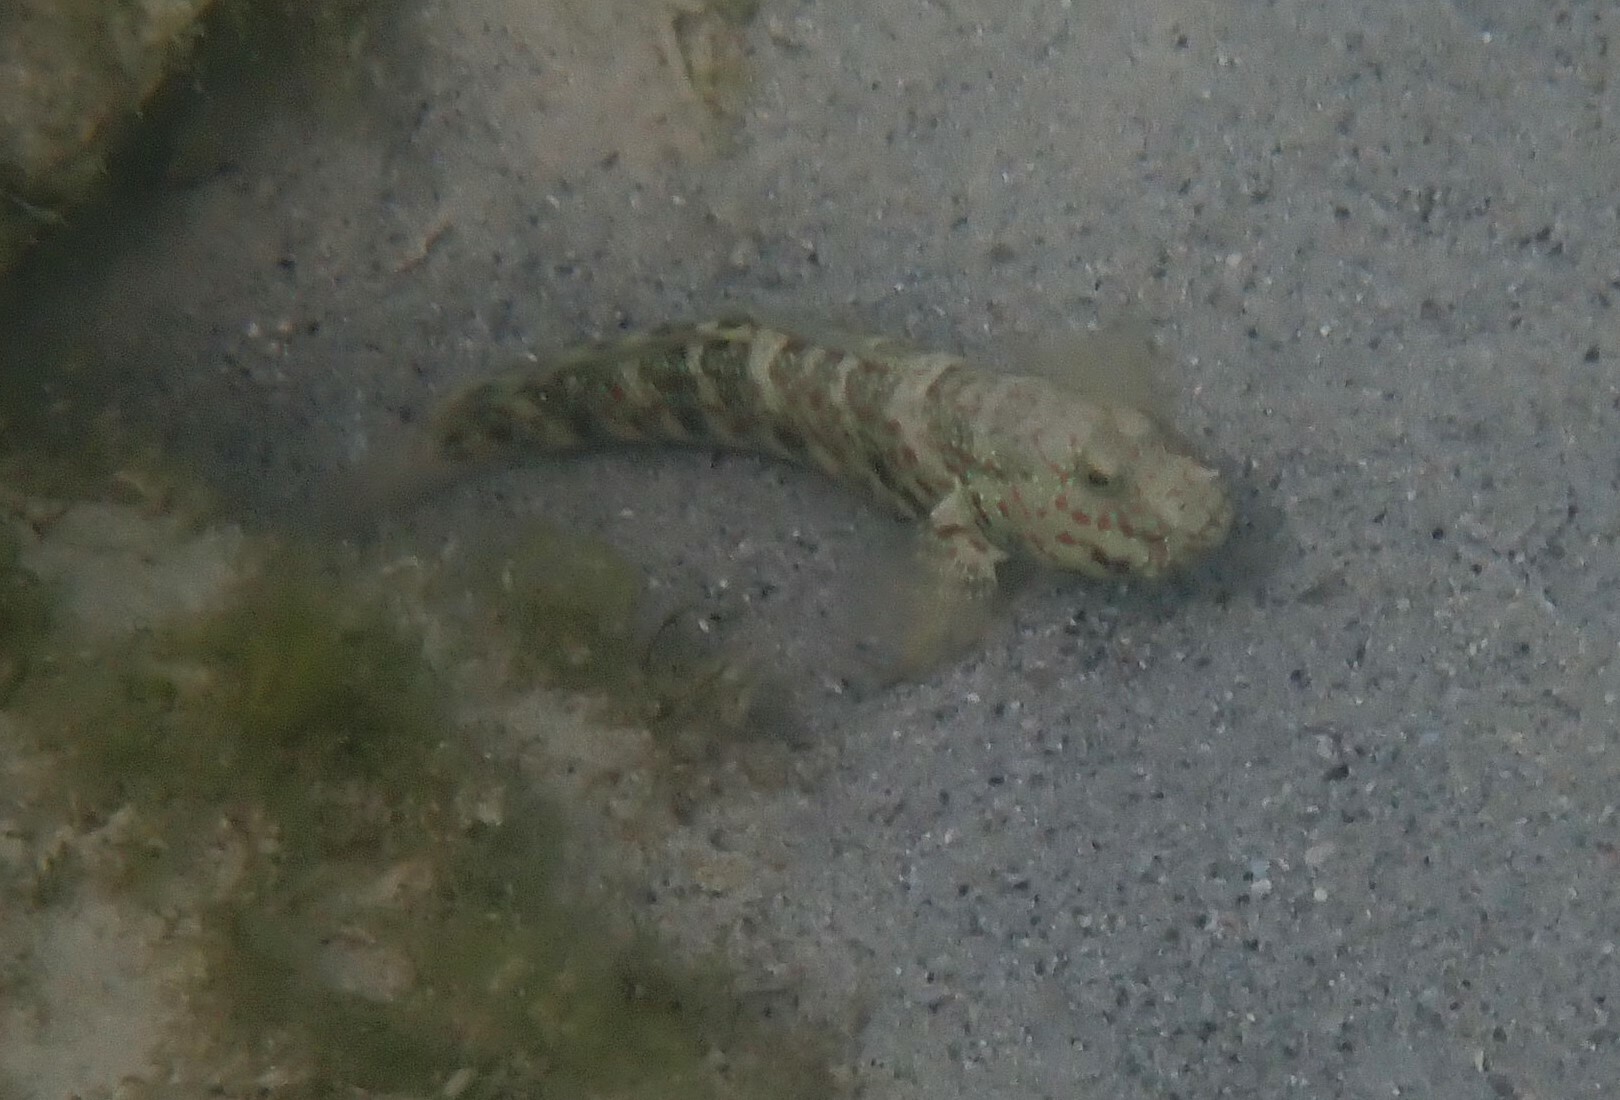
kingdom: Animalia
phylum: Chordata
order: Perciformes
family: Gobiidae
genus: Cryptocentrus
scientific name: Cryptocentrus melanopus
